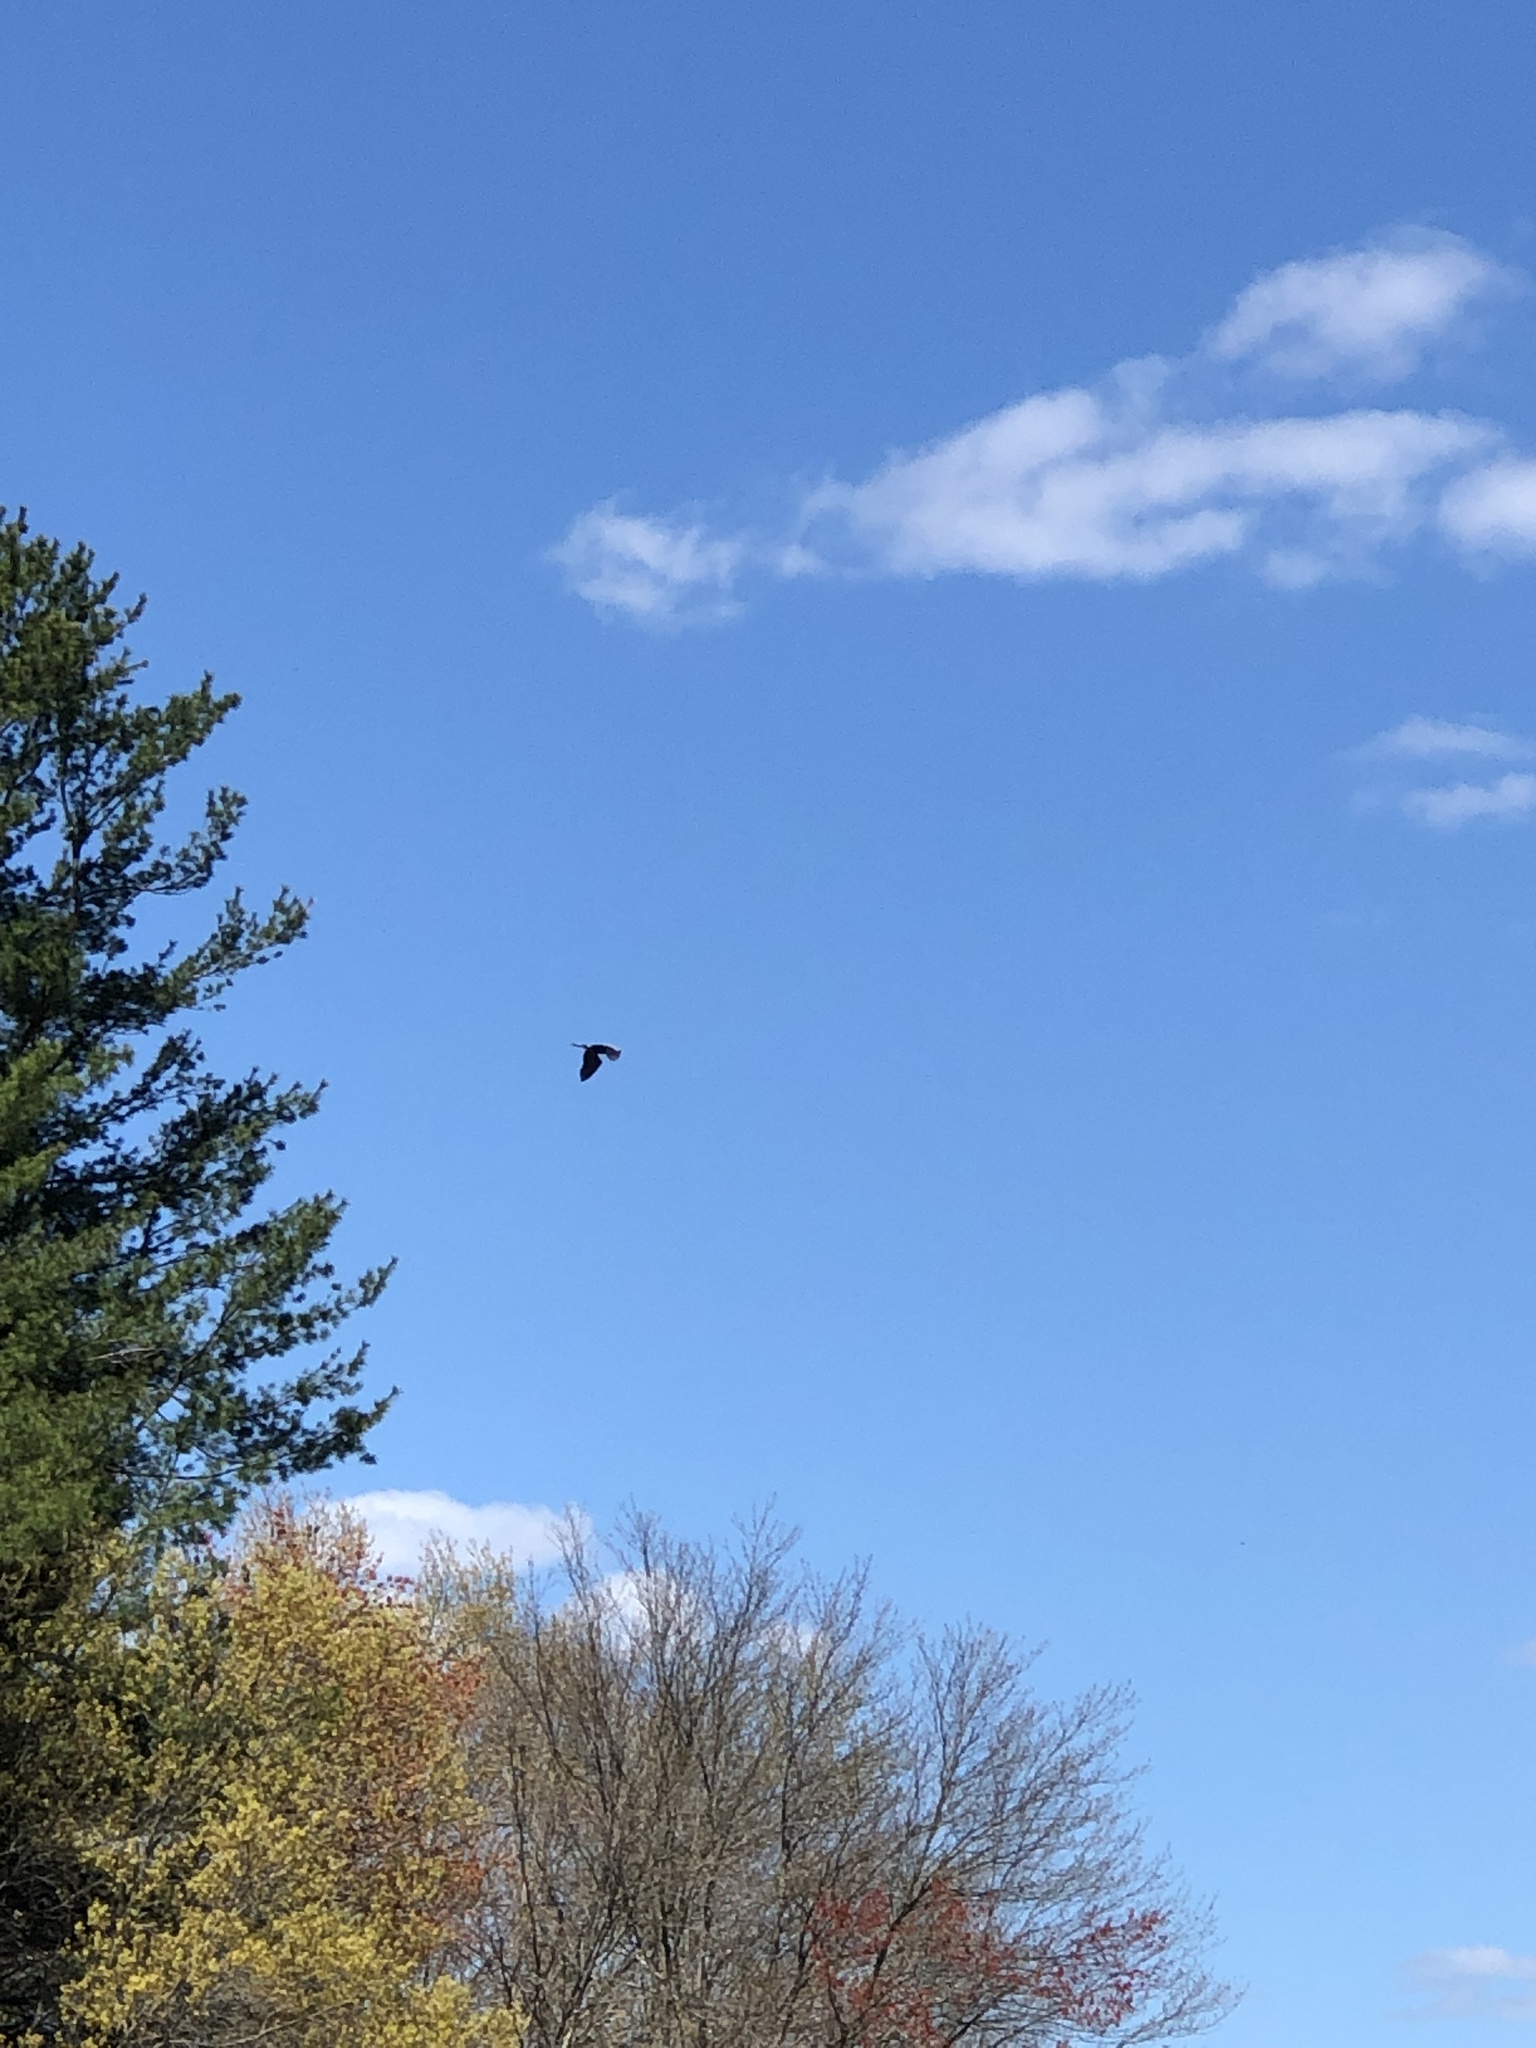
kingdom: Animalia
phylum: Chordata
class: Aves
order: Pelecaniformes
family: Ardeidae
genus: Ardea
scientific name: Ardea herodias
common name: Great blue heron
